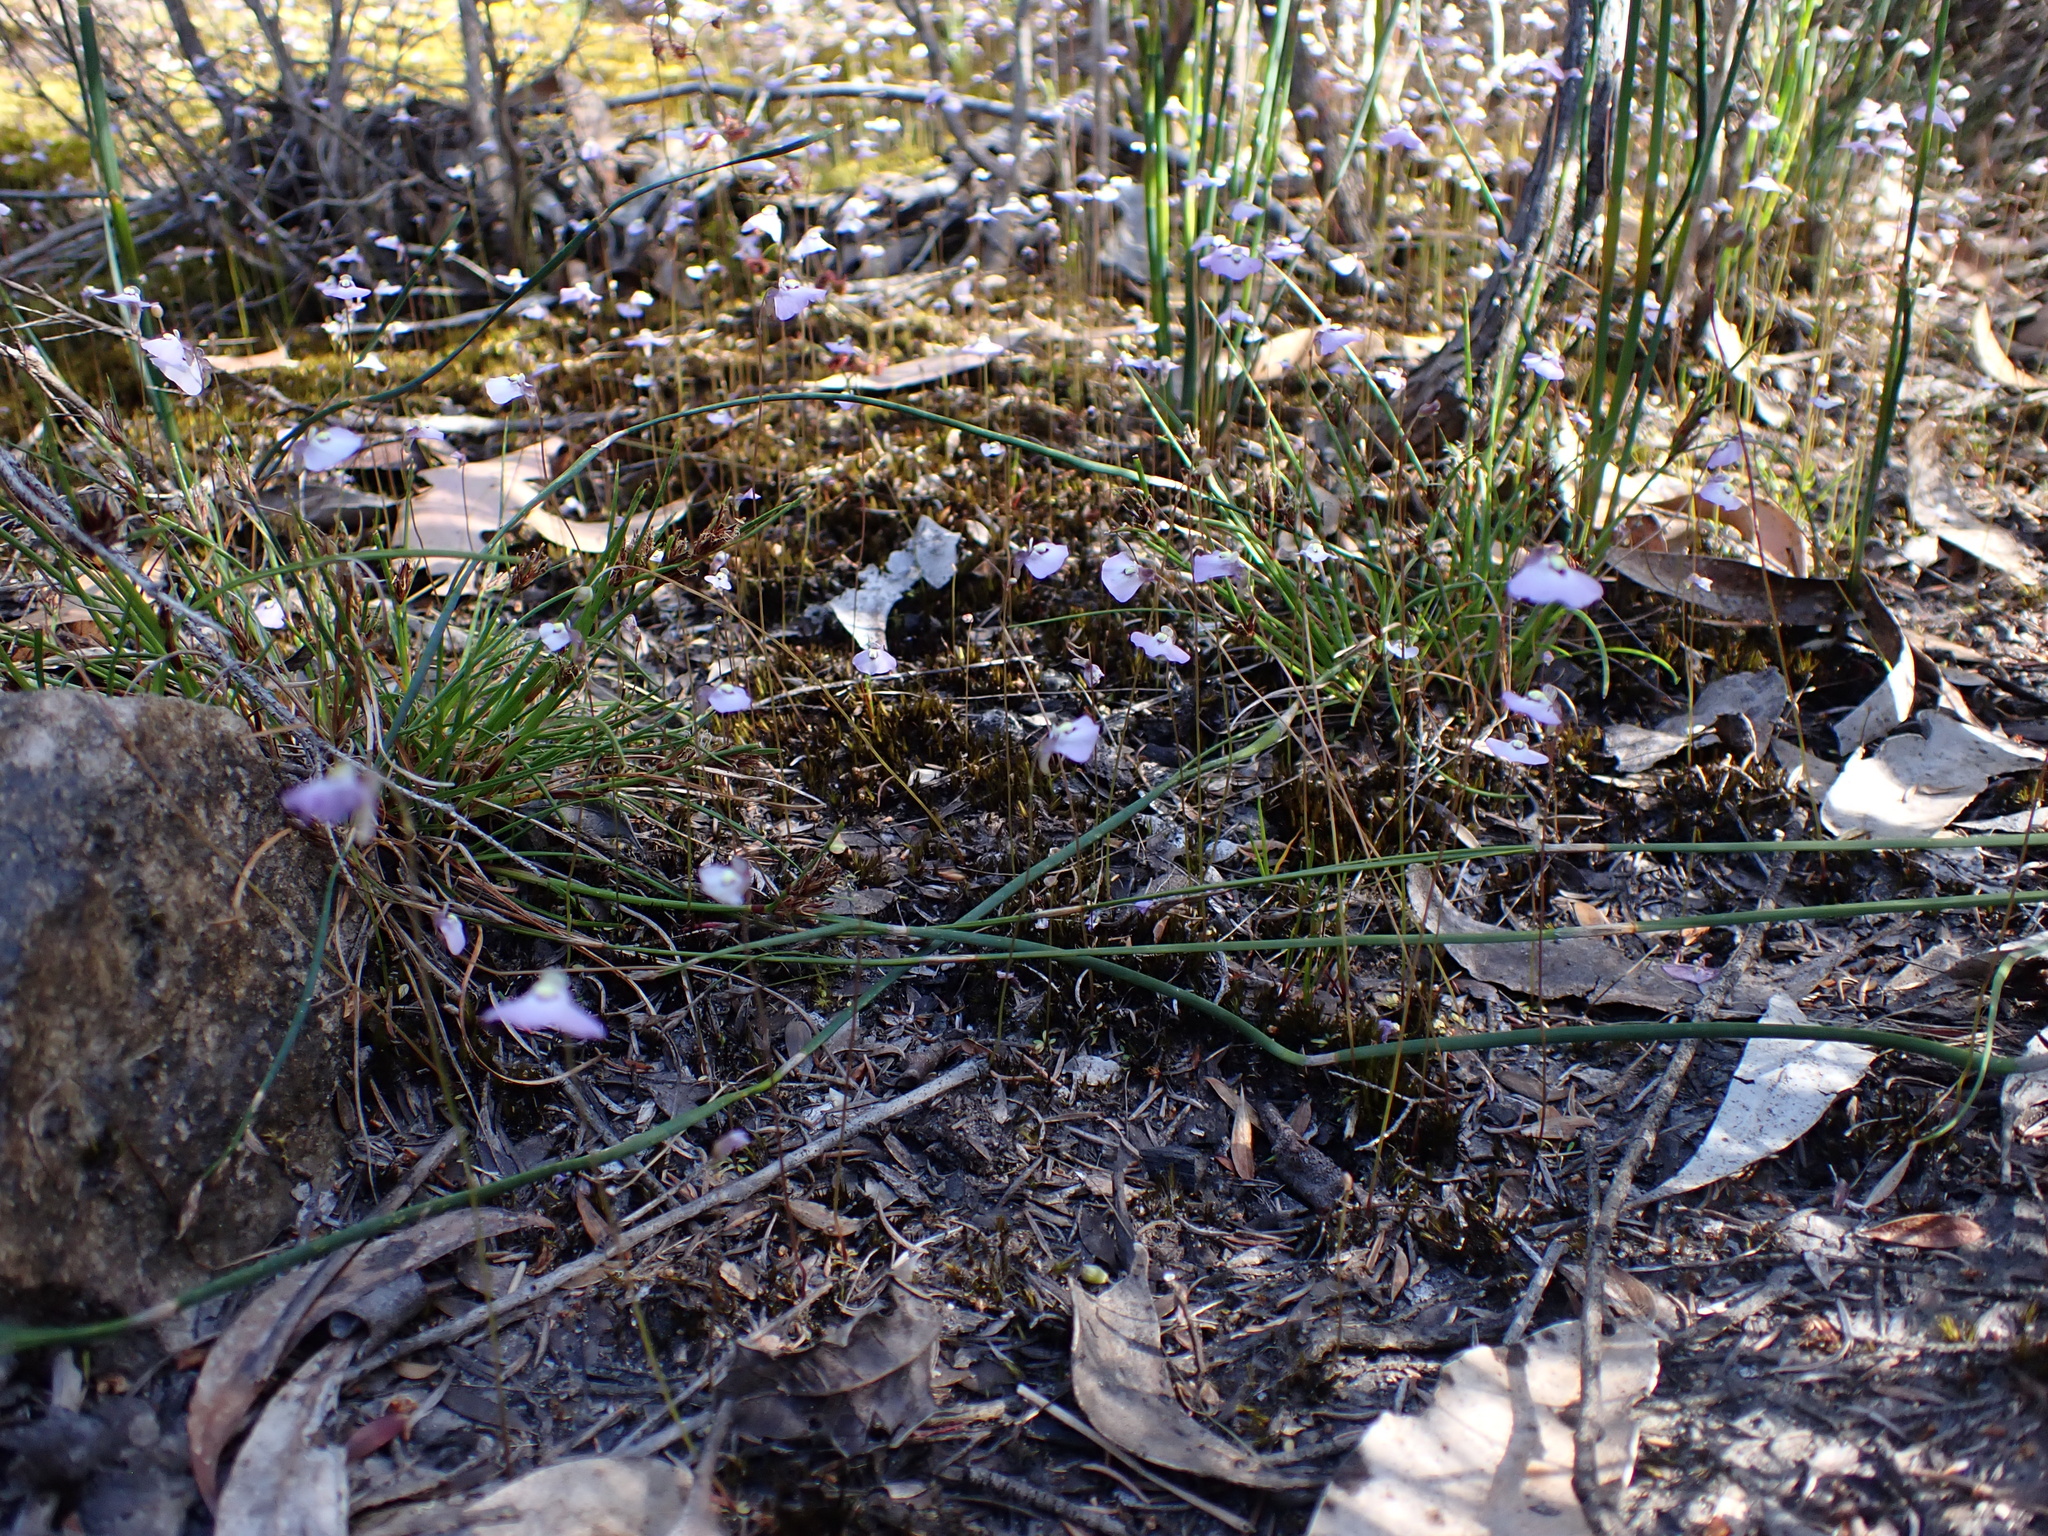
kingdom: Plantae
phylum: Tracheophyta
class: Magnoliopsida
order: Lamiales
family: Lentibulariaceae
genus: Utricularia
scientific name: Utricularia grampiana
